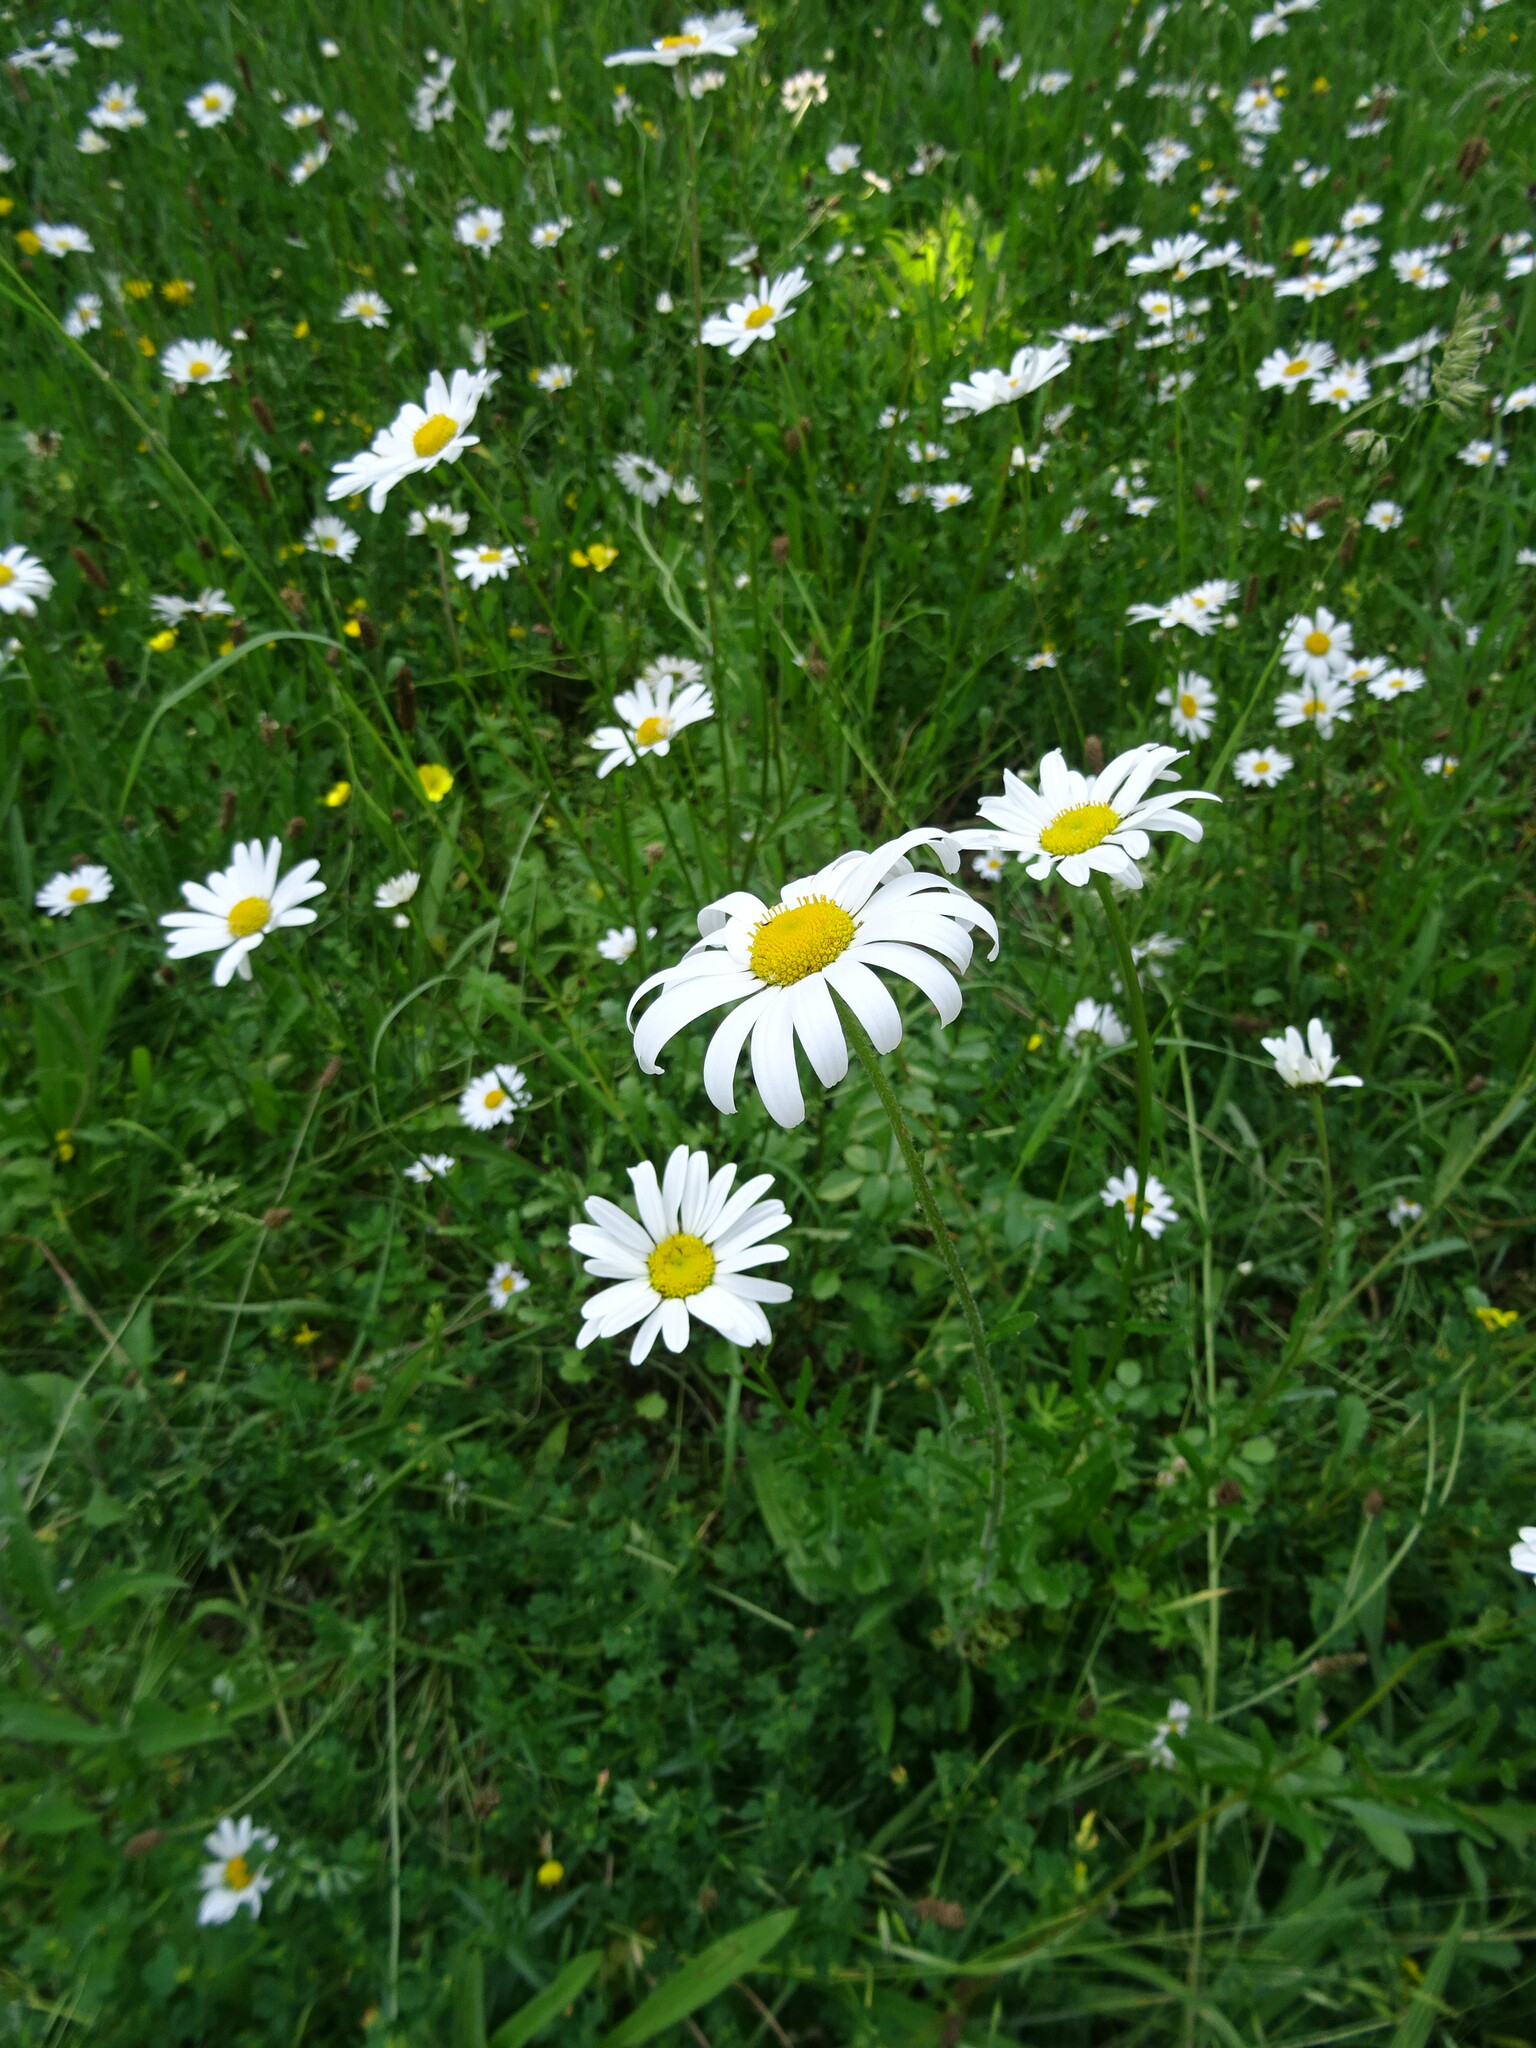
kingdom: Plantae
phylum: Tracheophyta
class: Magnoliopsida
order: Asterales
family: Asteraceae
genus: Leucanthemum
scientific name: Leucanthemum vulgare
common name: Oxeye daisy
